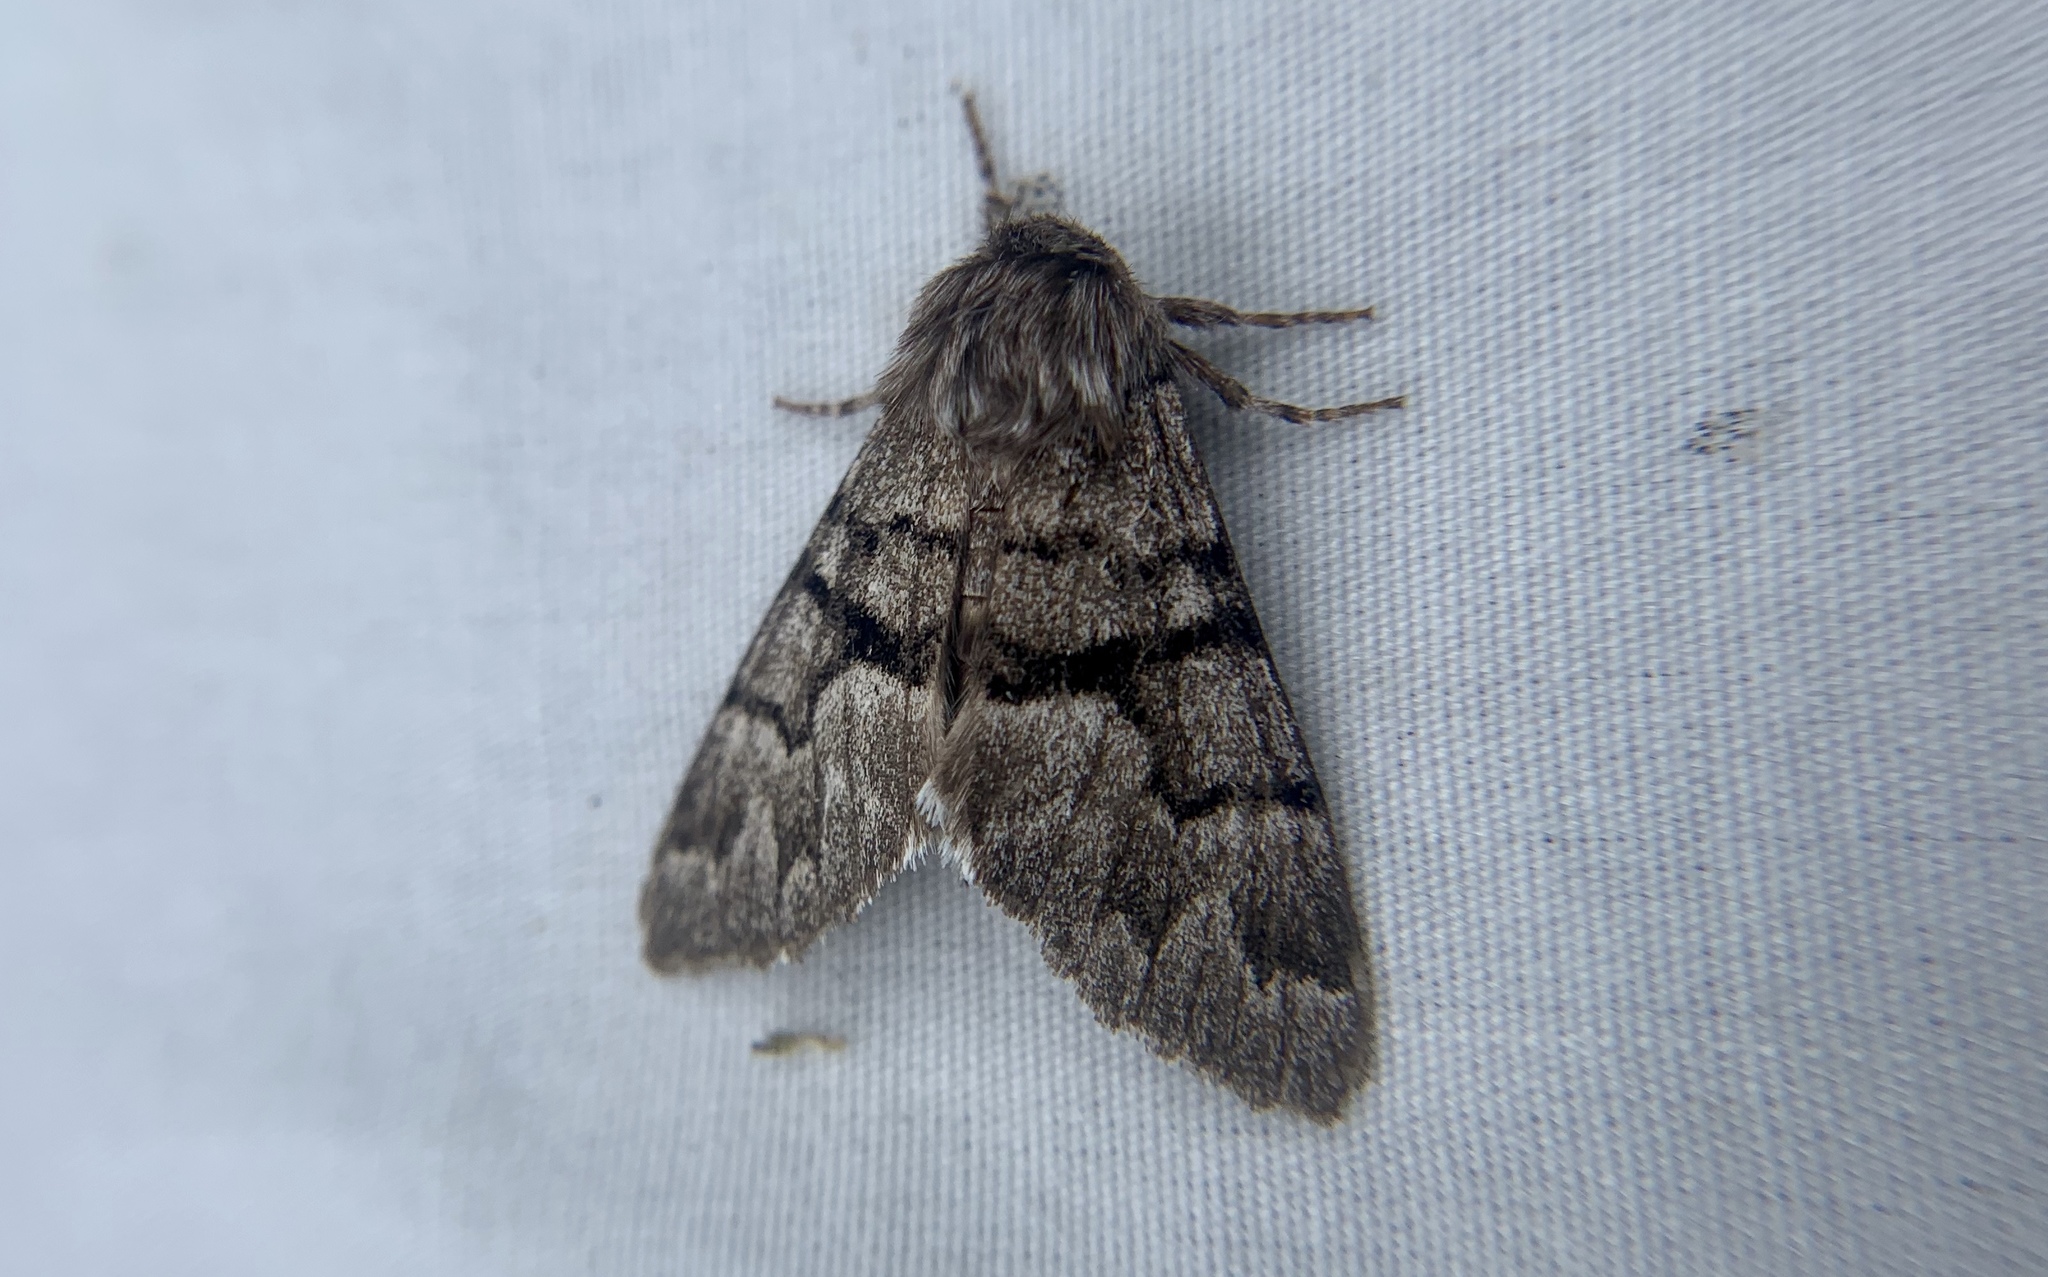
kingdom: Animalia
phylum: Arthropoda
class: Insecta
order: Lepidoptera
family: Noctuidae
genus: Panthea
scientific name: Panthea furcilla
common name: Eastern panthea moth
